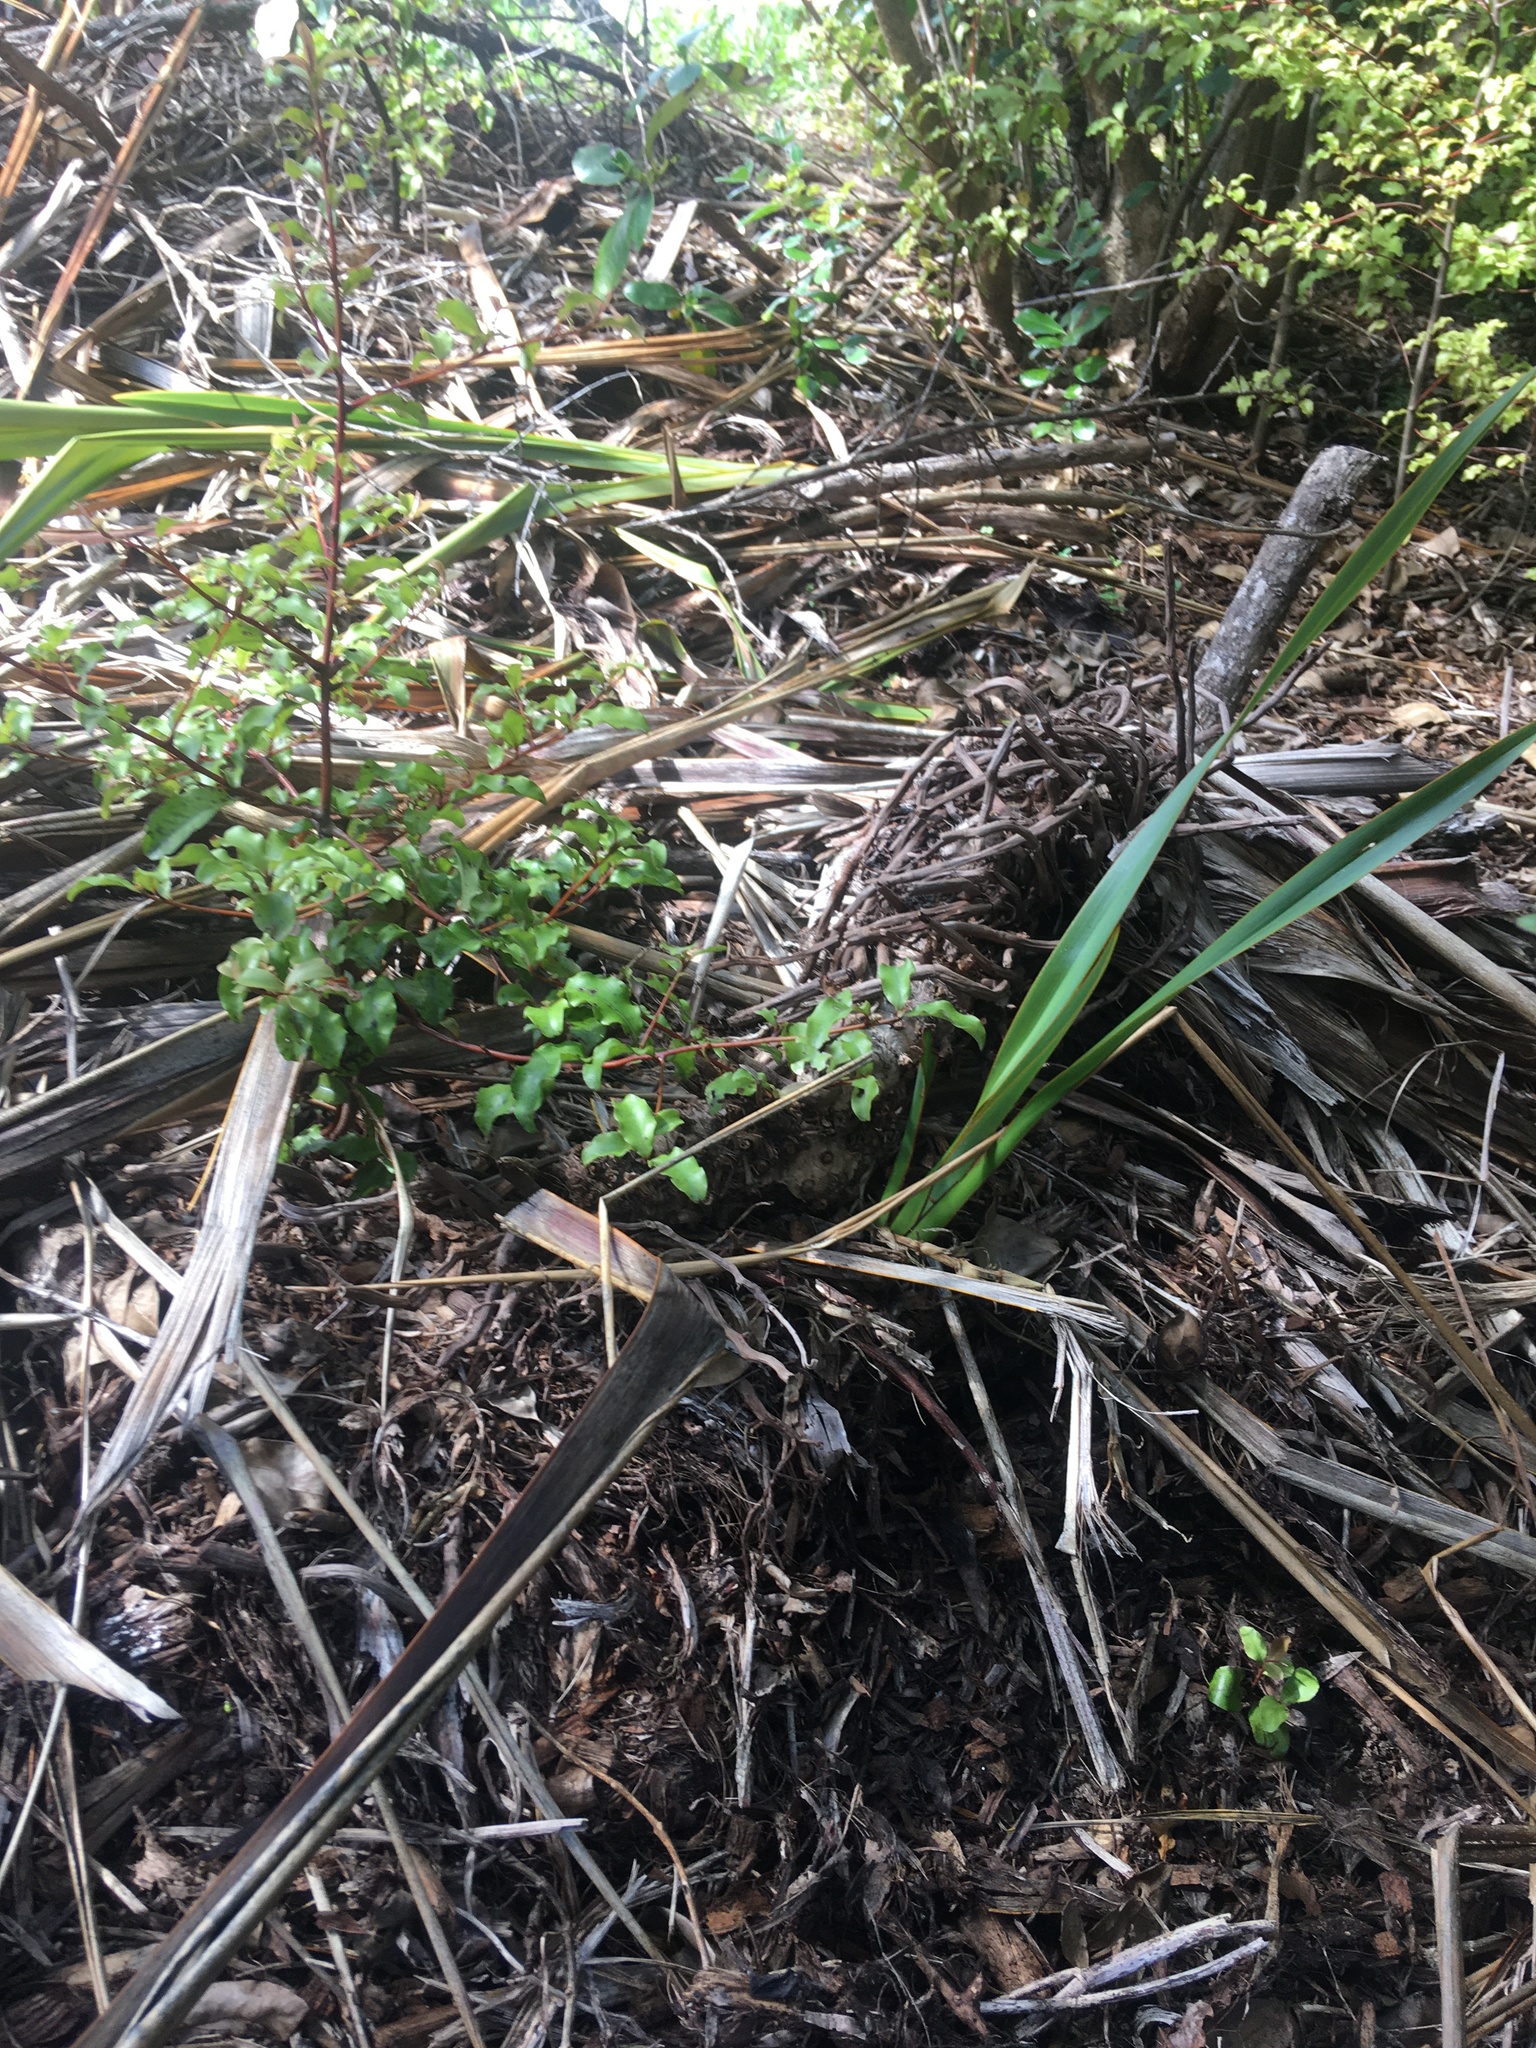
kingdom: Plantae
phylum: Tracheophyta
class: Magnoliopsida
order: Ericales
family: Primulaceae
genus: Myrsine
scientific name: Myrsine australis
